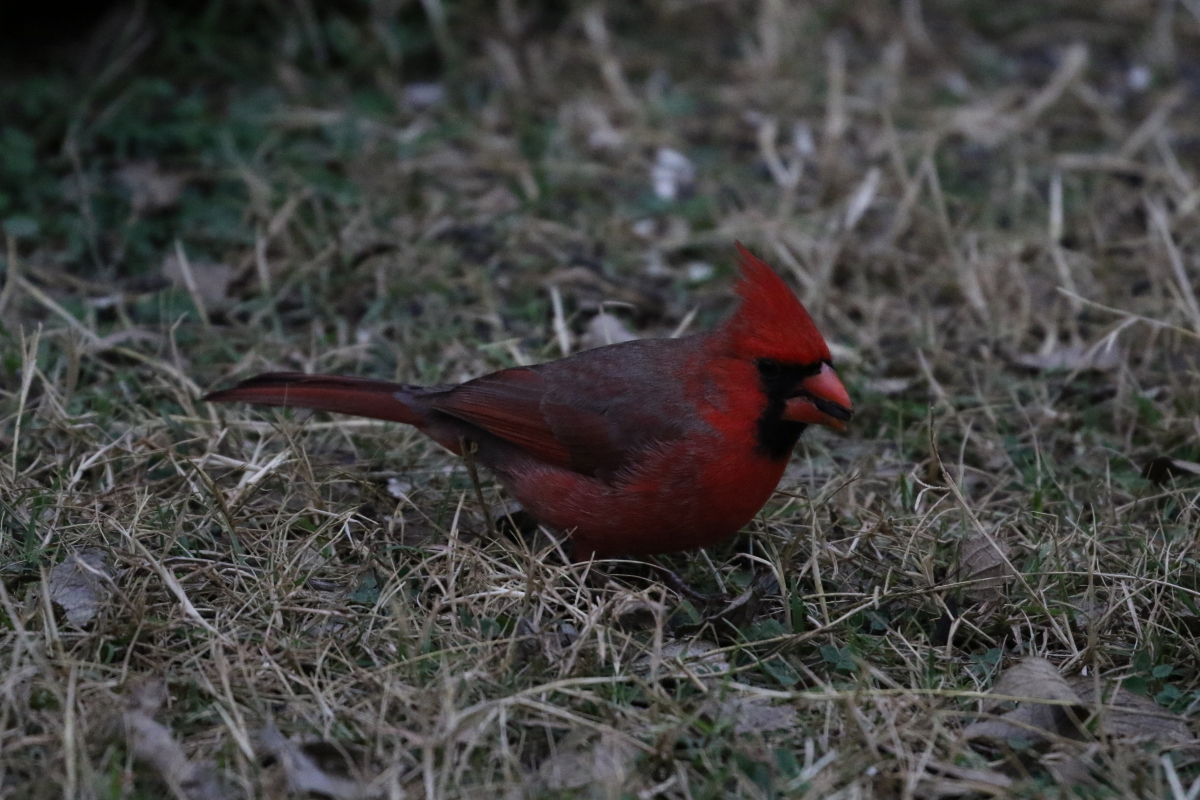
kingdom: Animalia
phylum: Chordata
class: Aves
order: Passeriformes
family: Cardinalidae
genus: Cardinalis
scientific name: Cardinalis cardinalis
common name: Northern cardinal
